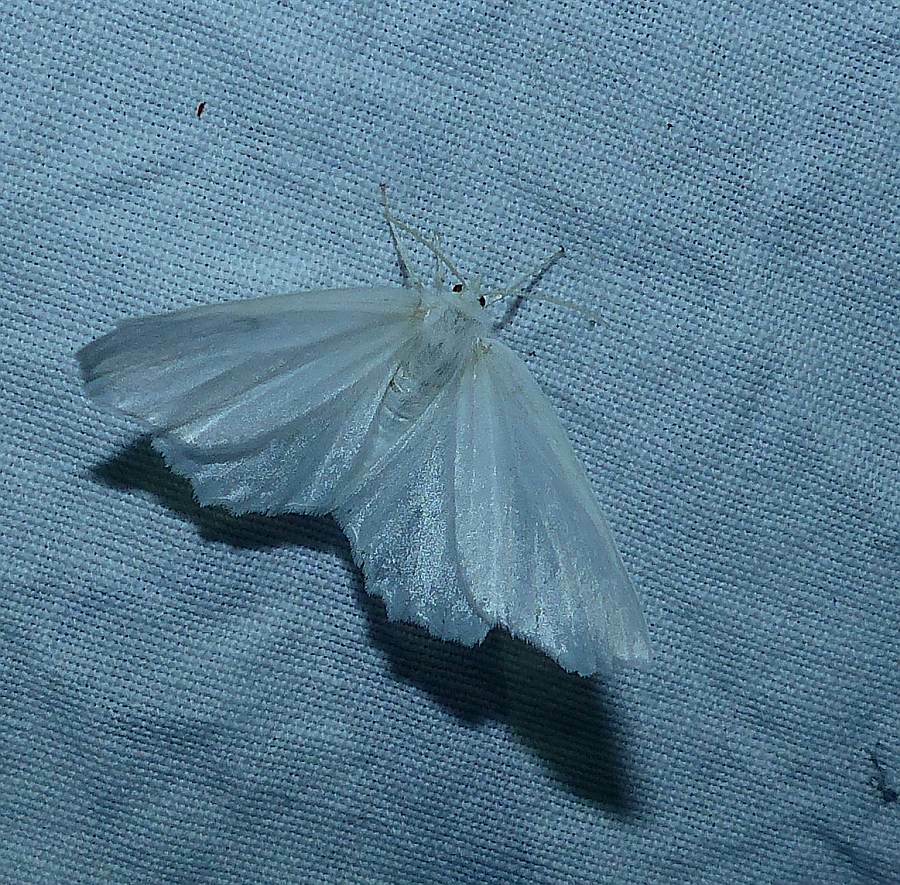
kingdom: Animalia
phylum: Arthropoda
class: Insecta
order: Lepidoptera
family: Geometridae
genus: Ennomos
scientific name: Ennomos subsignaria
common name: Elm spanworm
